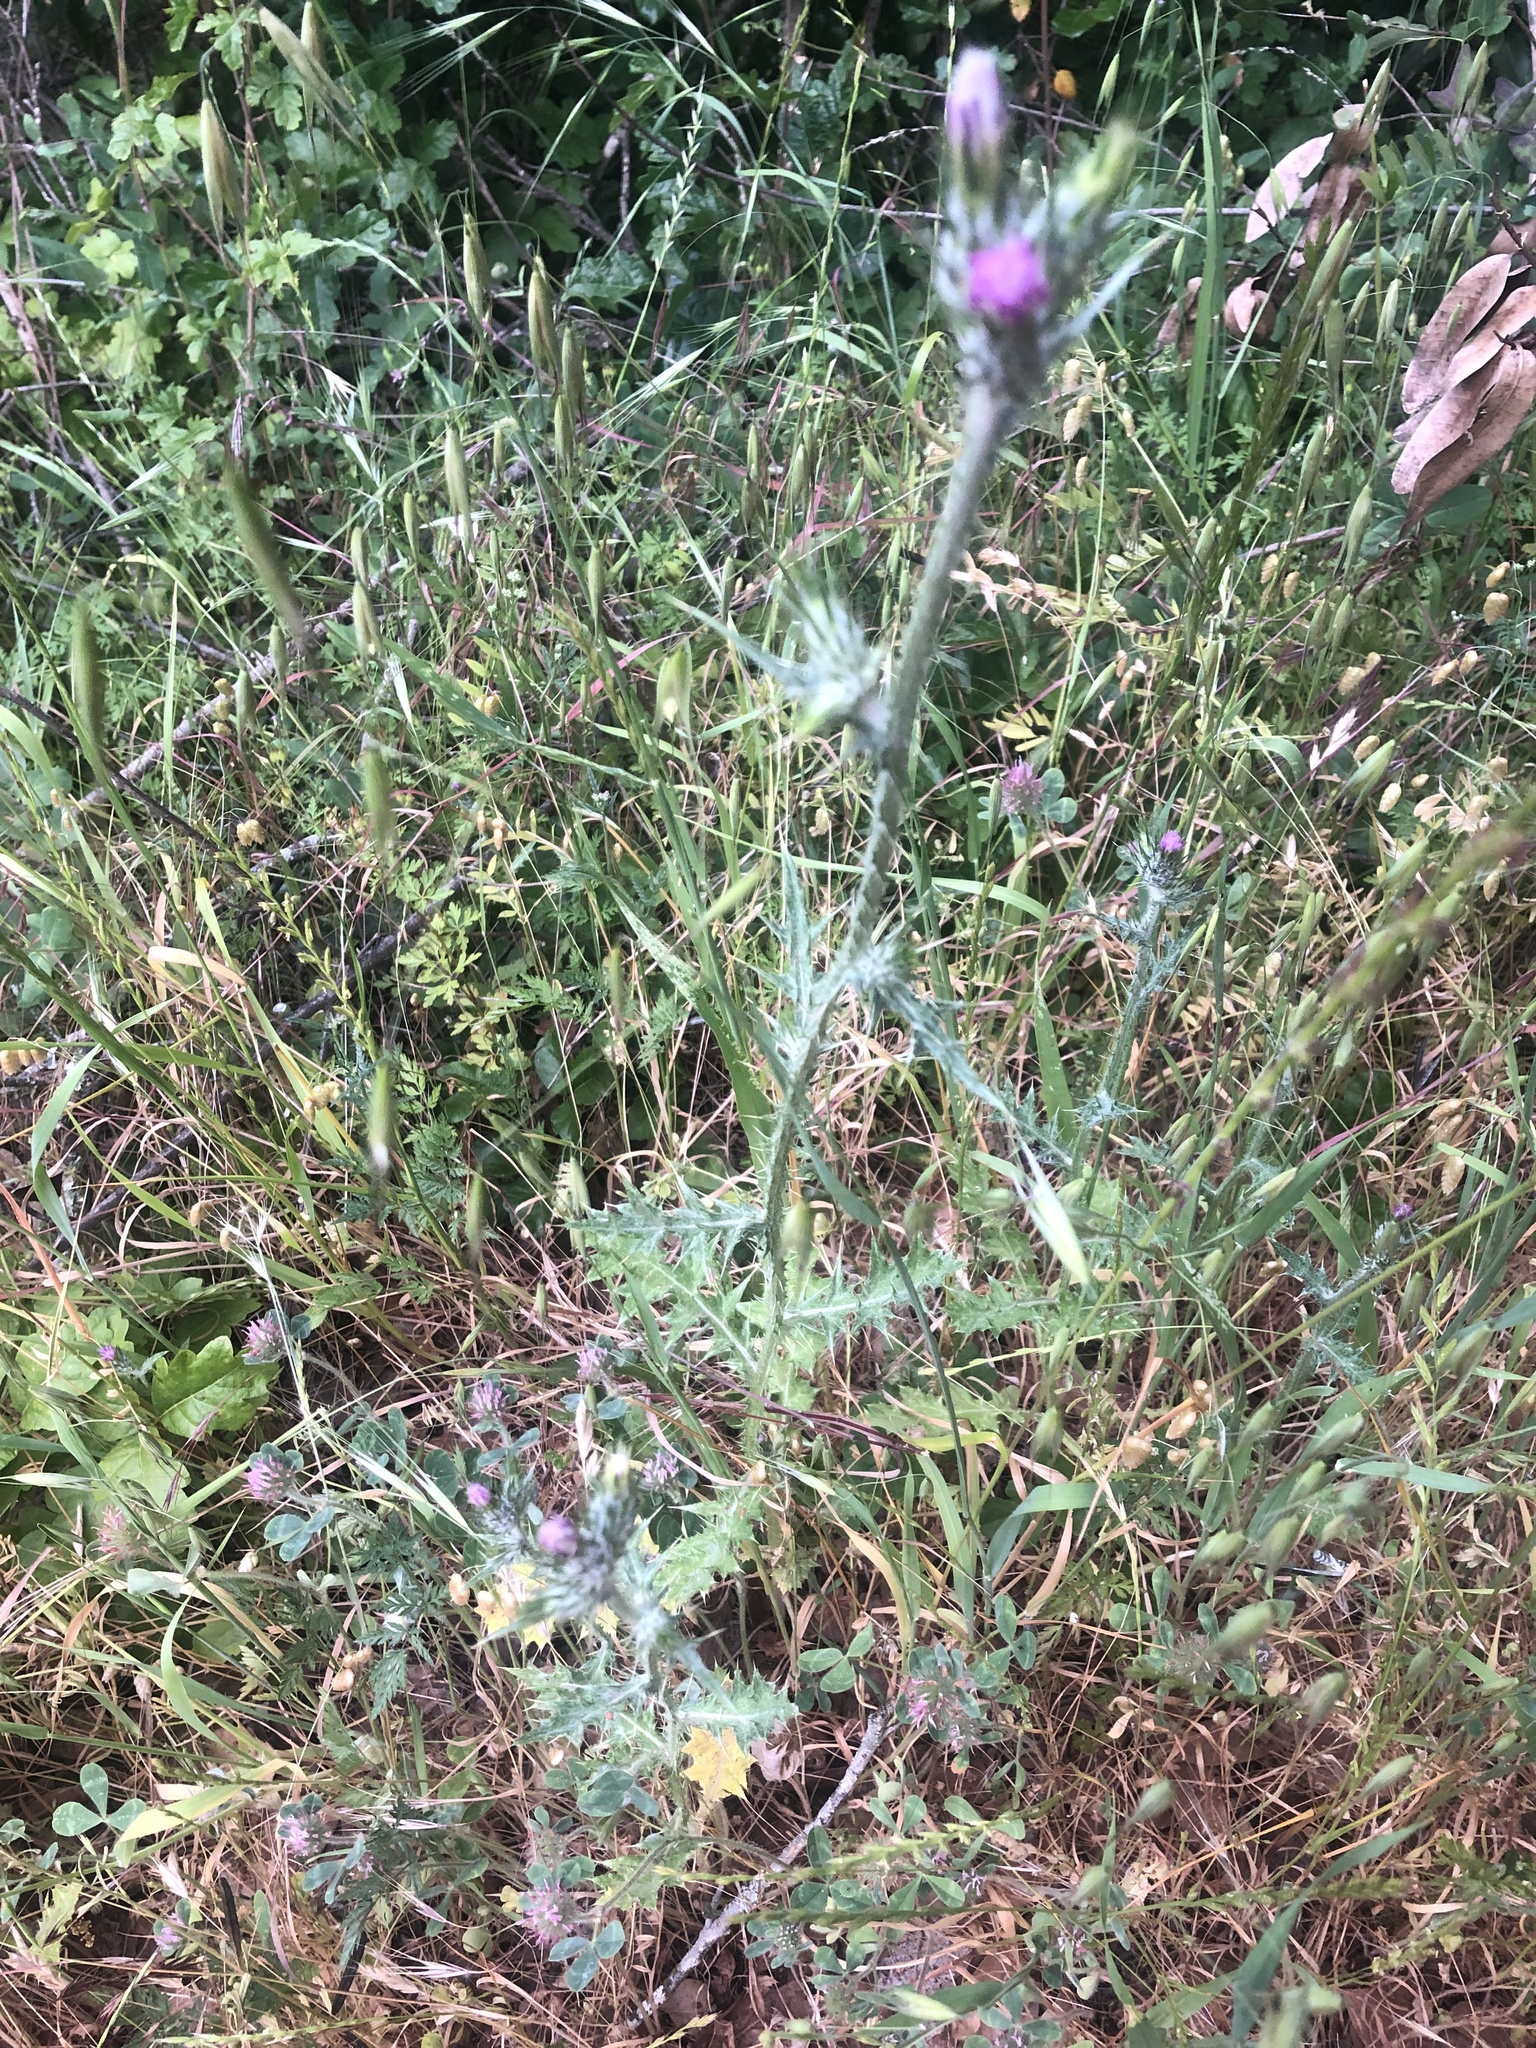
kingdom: Plantae
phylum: Tracheophyta
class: Magnoliopsida
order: Asterales
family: Asteraceae
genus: Carduus
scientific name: Carduus pycnocephalus
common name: Plymouth thistle
